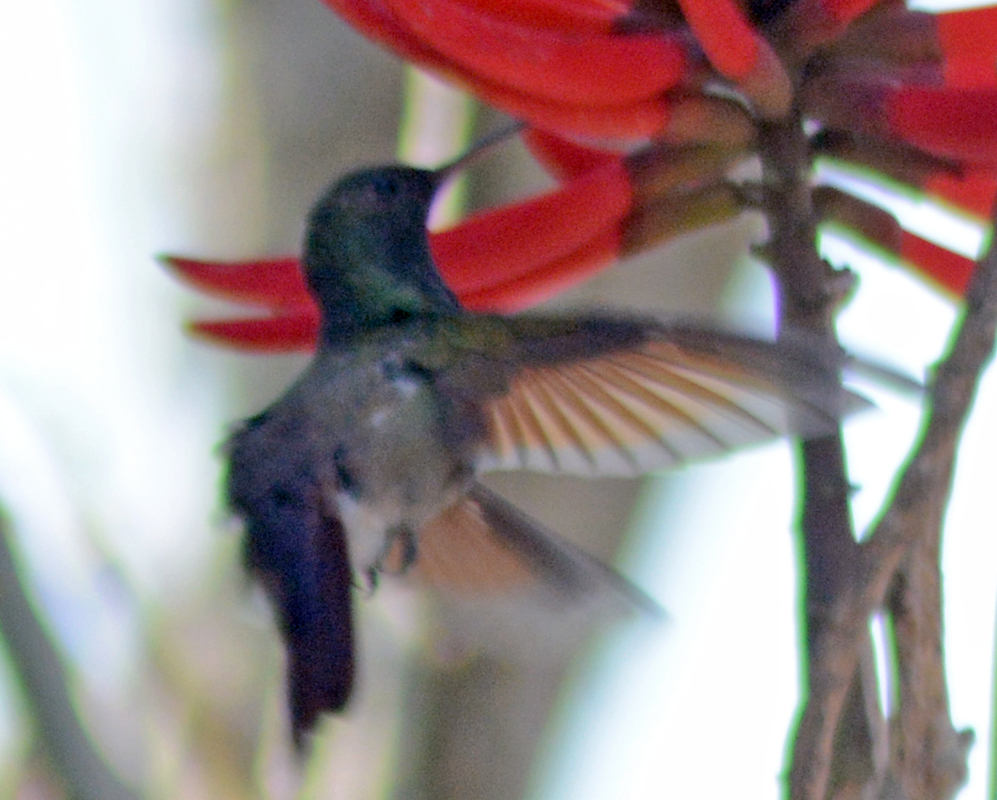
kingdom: Animalia
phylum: Chordata
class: Aves
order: Apodiformes
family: Trochilidae
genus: Saucerottia
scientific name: Saucerottia beryllina
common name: Berylline hummingbird
